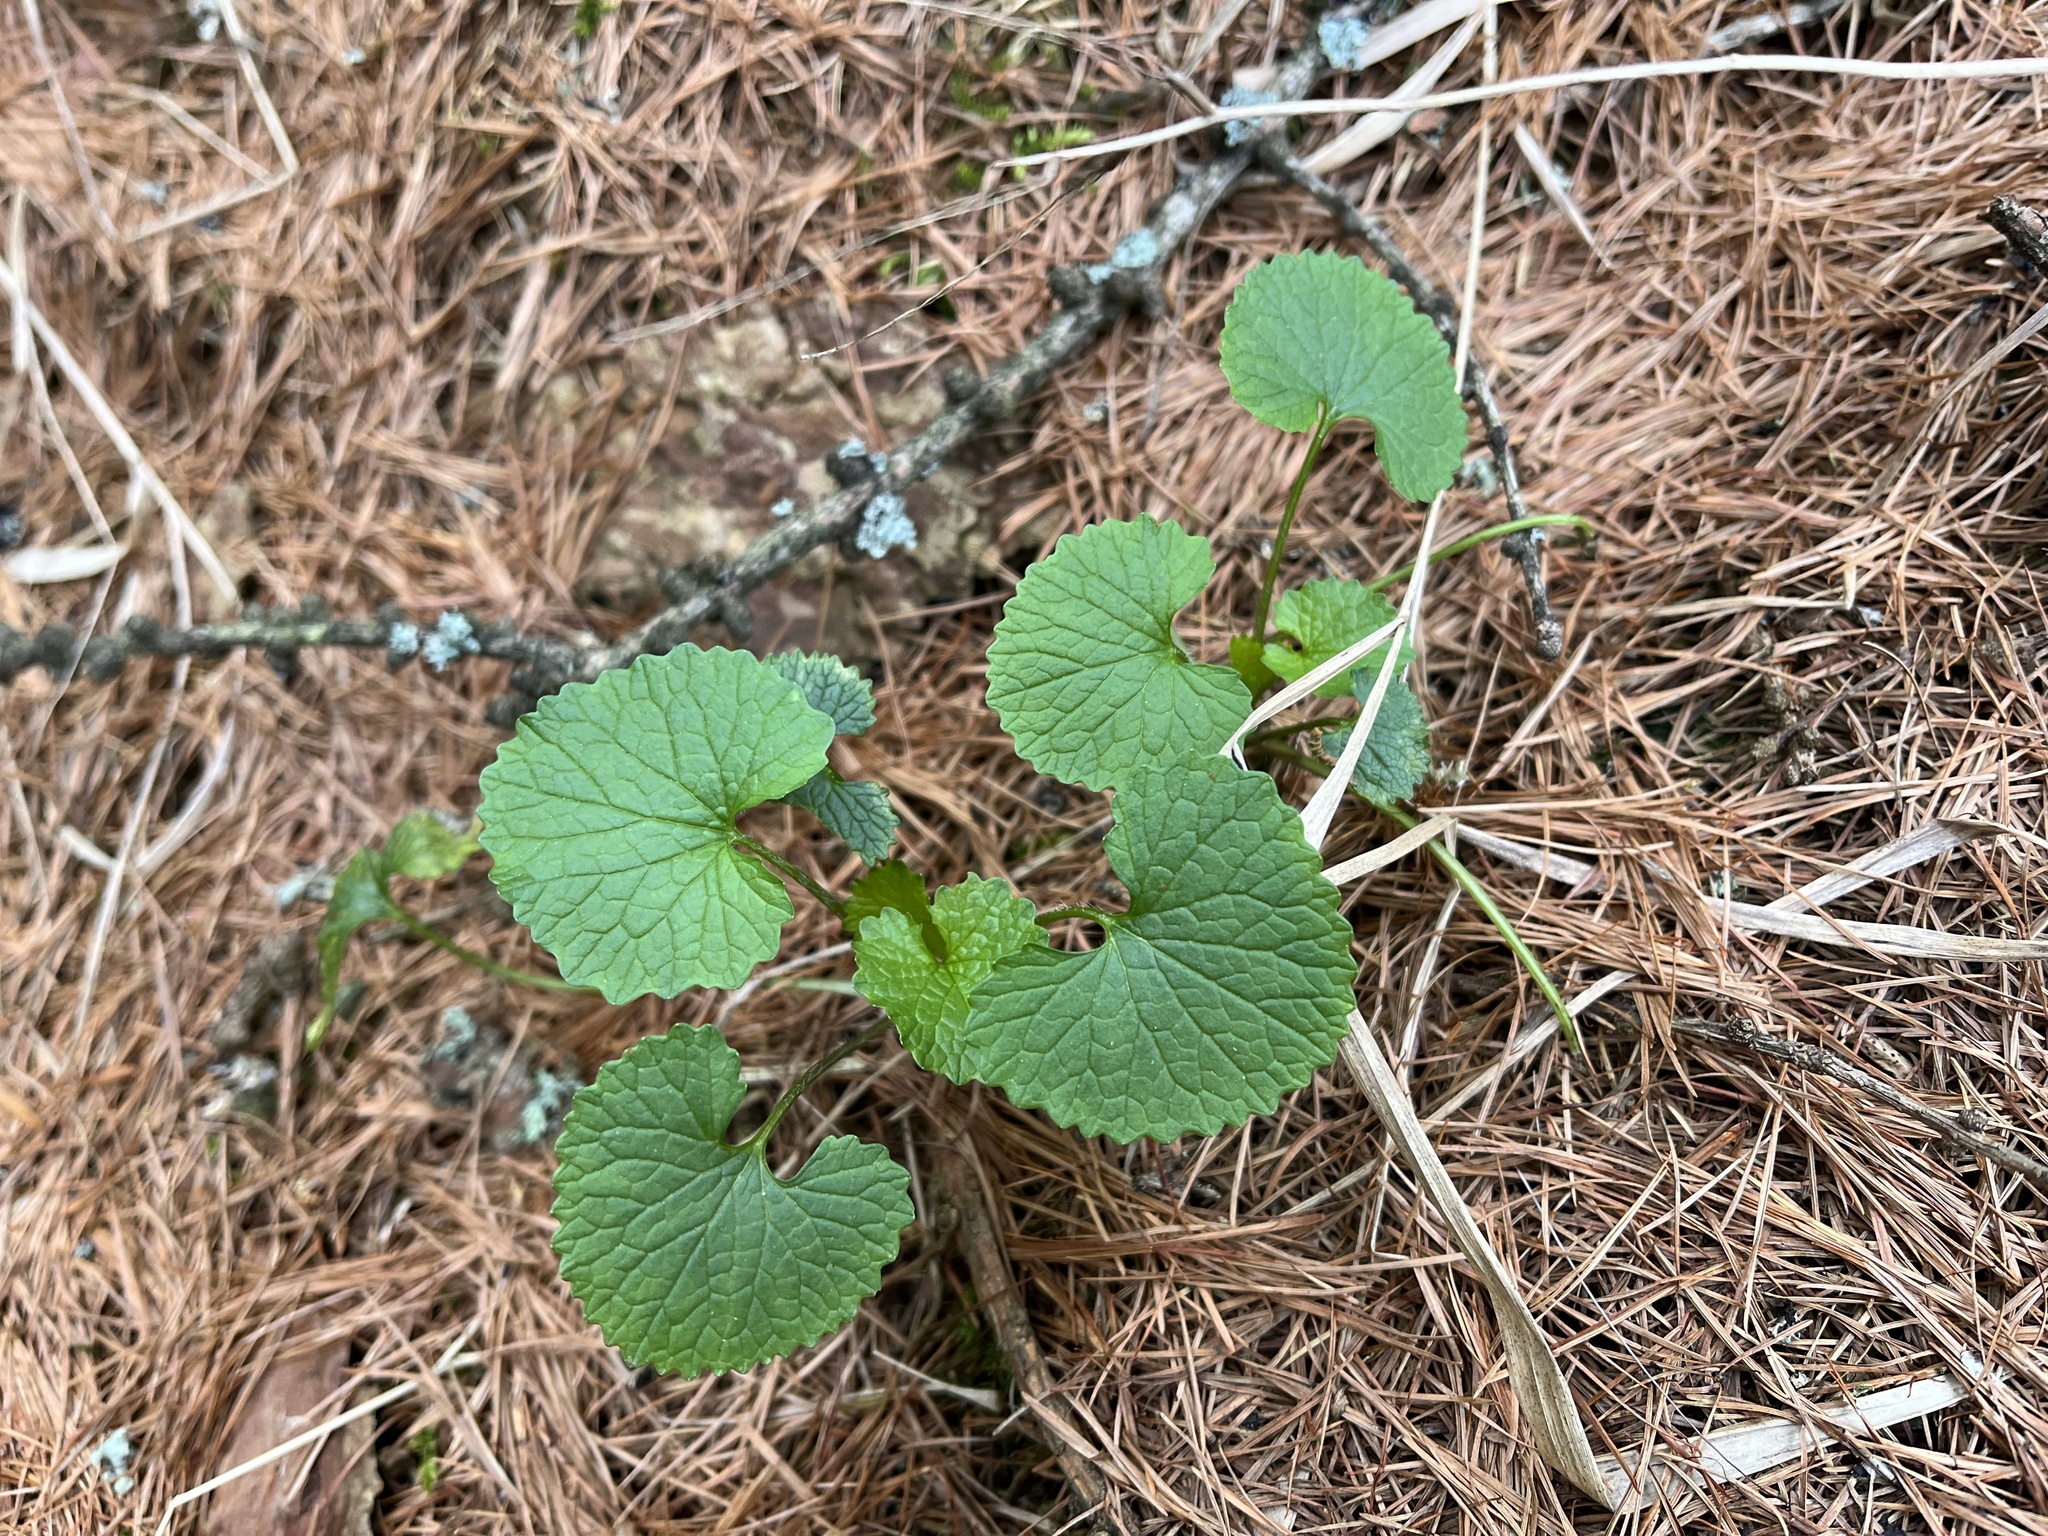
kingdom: Plantae
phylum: Tracheophyta
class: Magnoliopsida
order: Brassicales
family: Brassicaceae
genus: Alliaria
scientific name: Alliaria petiolata
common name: Garlic mustard
